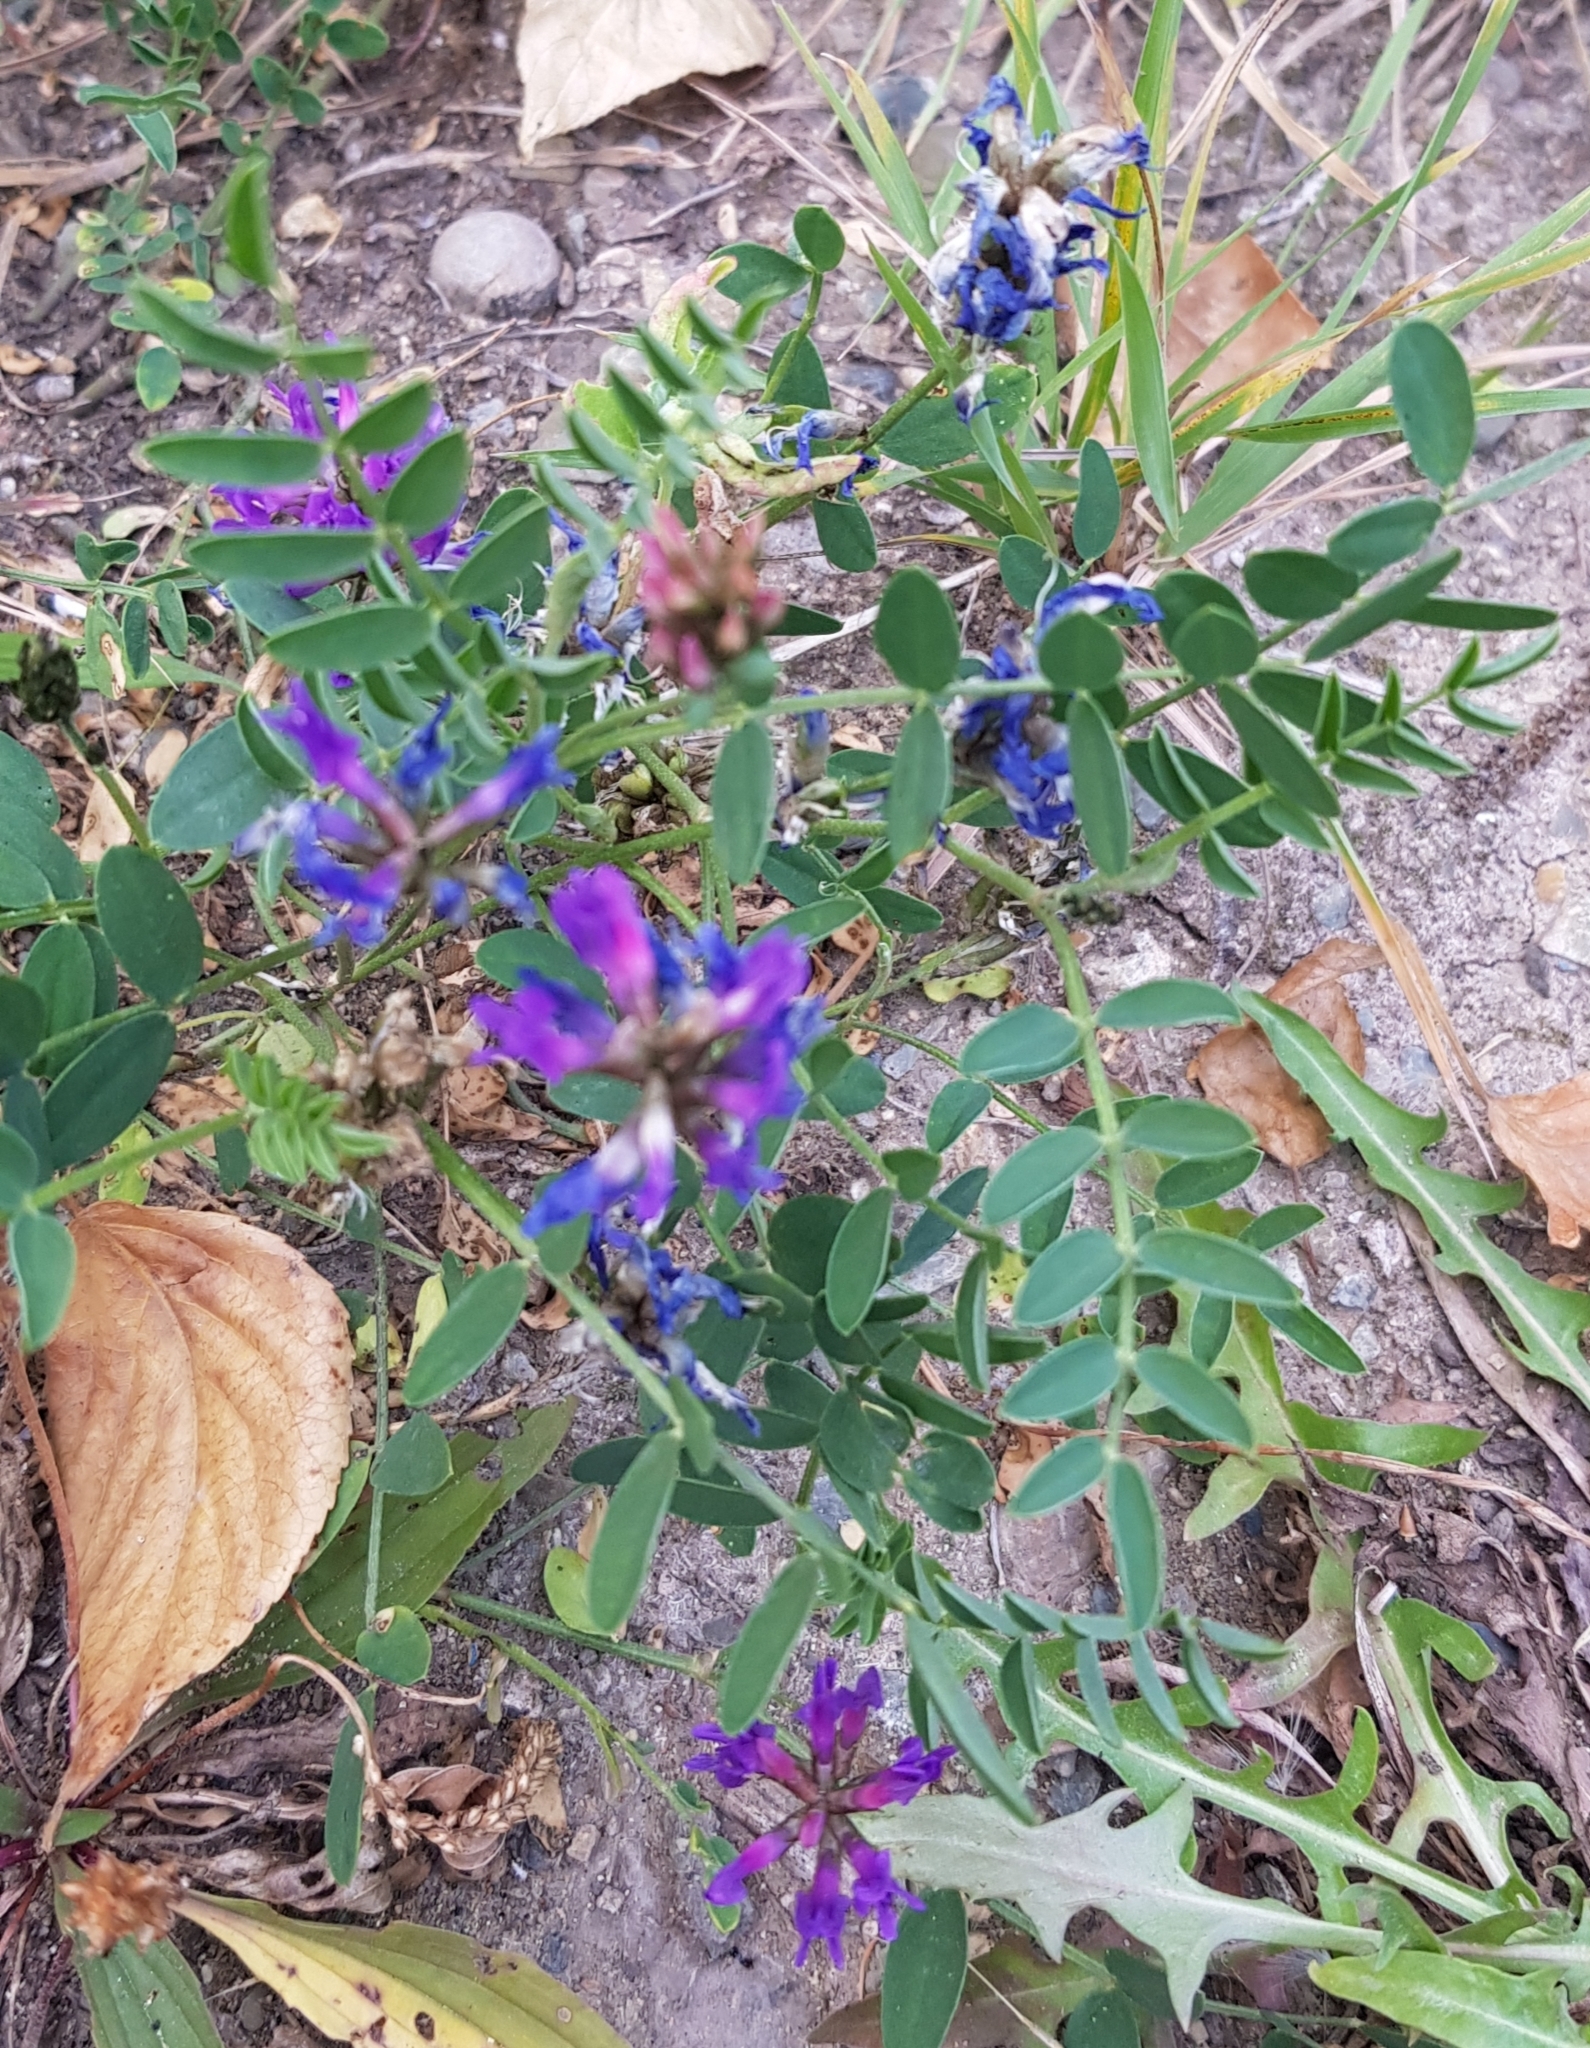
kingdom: Plantae
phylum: Tracheophyta
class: Magnoliopsida
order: Fabales
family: Fabaceae
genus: Astragalus
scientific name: Astragalus laxmannii
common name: Laxmann's milk-vetch
